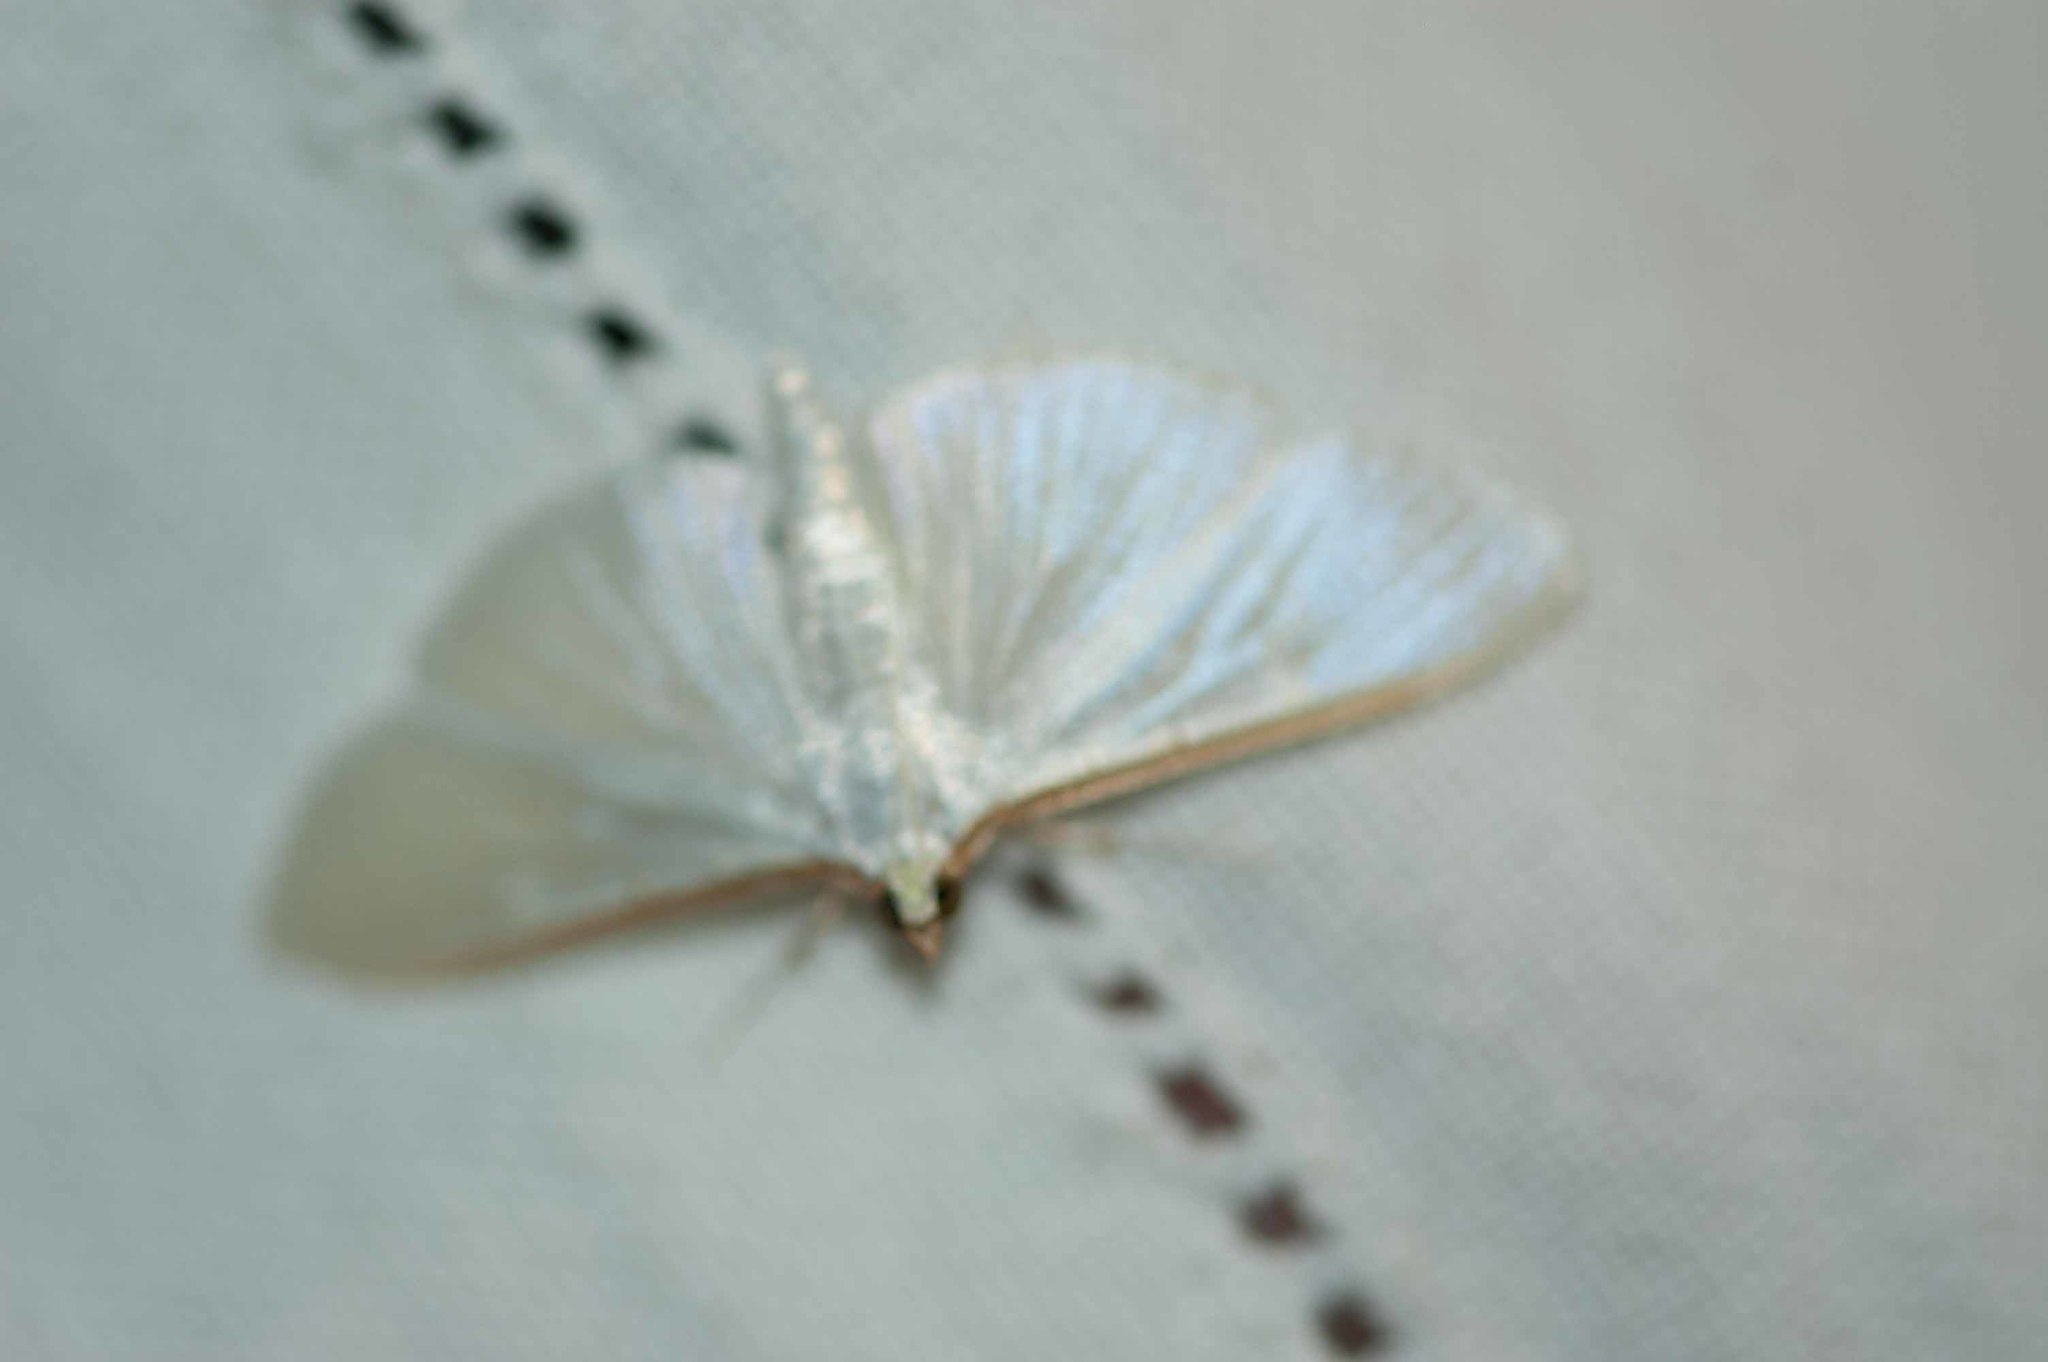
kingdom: Animalia
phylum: Arthropoda
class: Insecta
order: Lepidoptera
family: Crambidae
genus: Palpita
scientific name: Palpita vitrealis
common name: Olive-tree pearl
